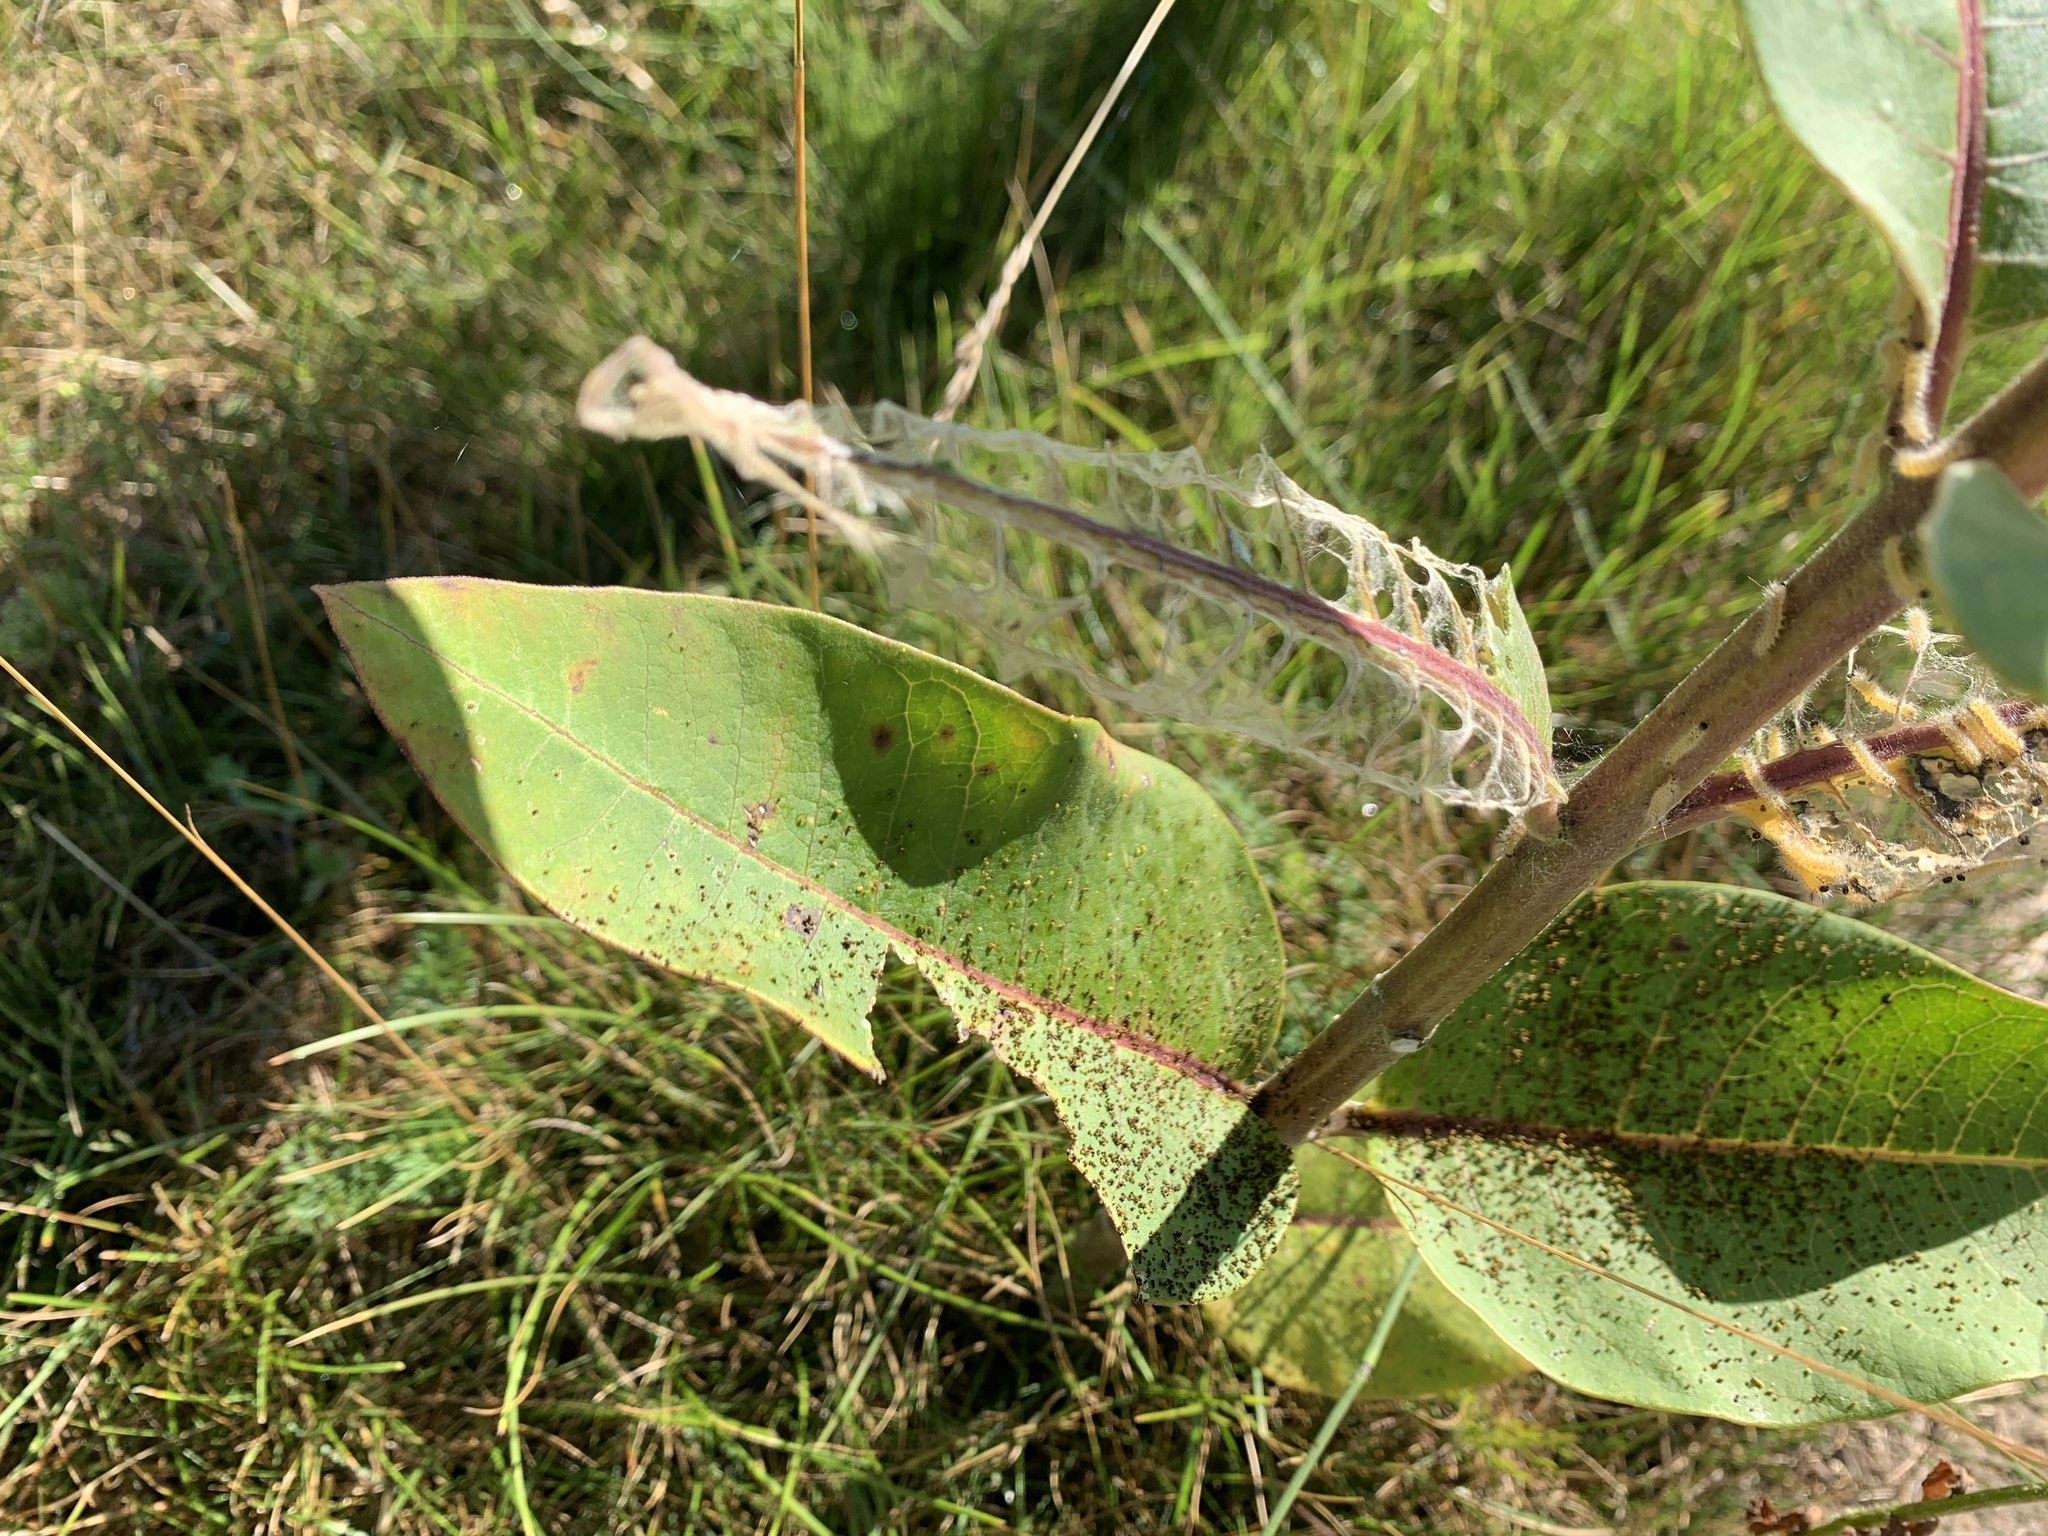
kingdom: Animalia
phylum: Arthropoda
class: Insecta
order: Lepidoptera
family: Erebidae
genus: Euchaetes
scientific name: Euchaetes egle
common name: Milkweed tussock moth
